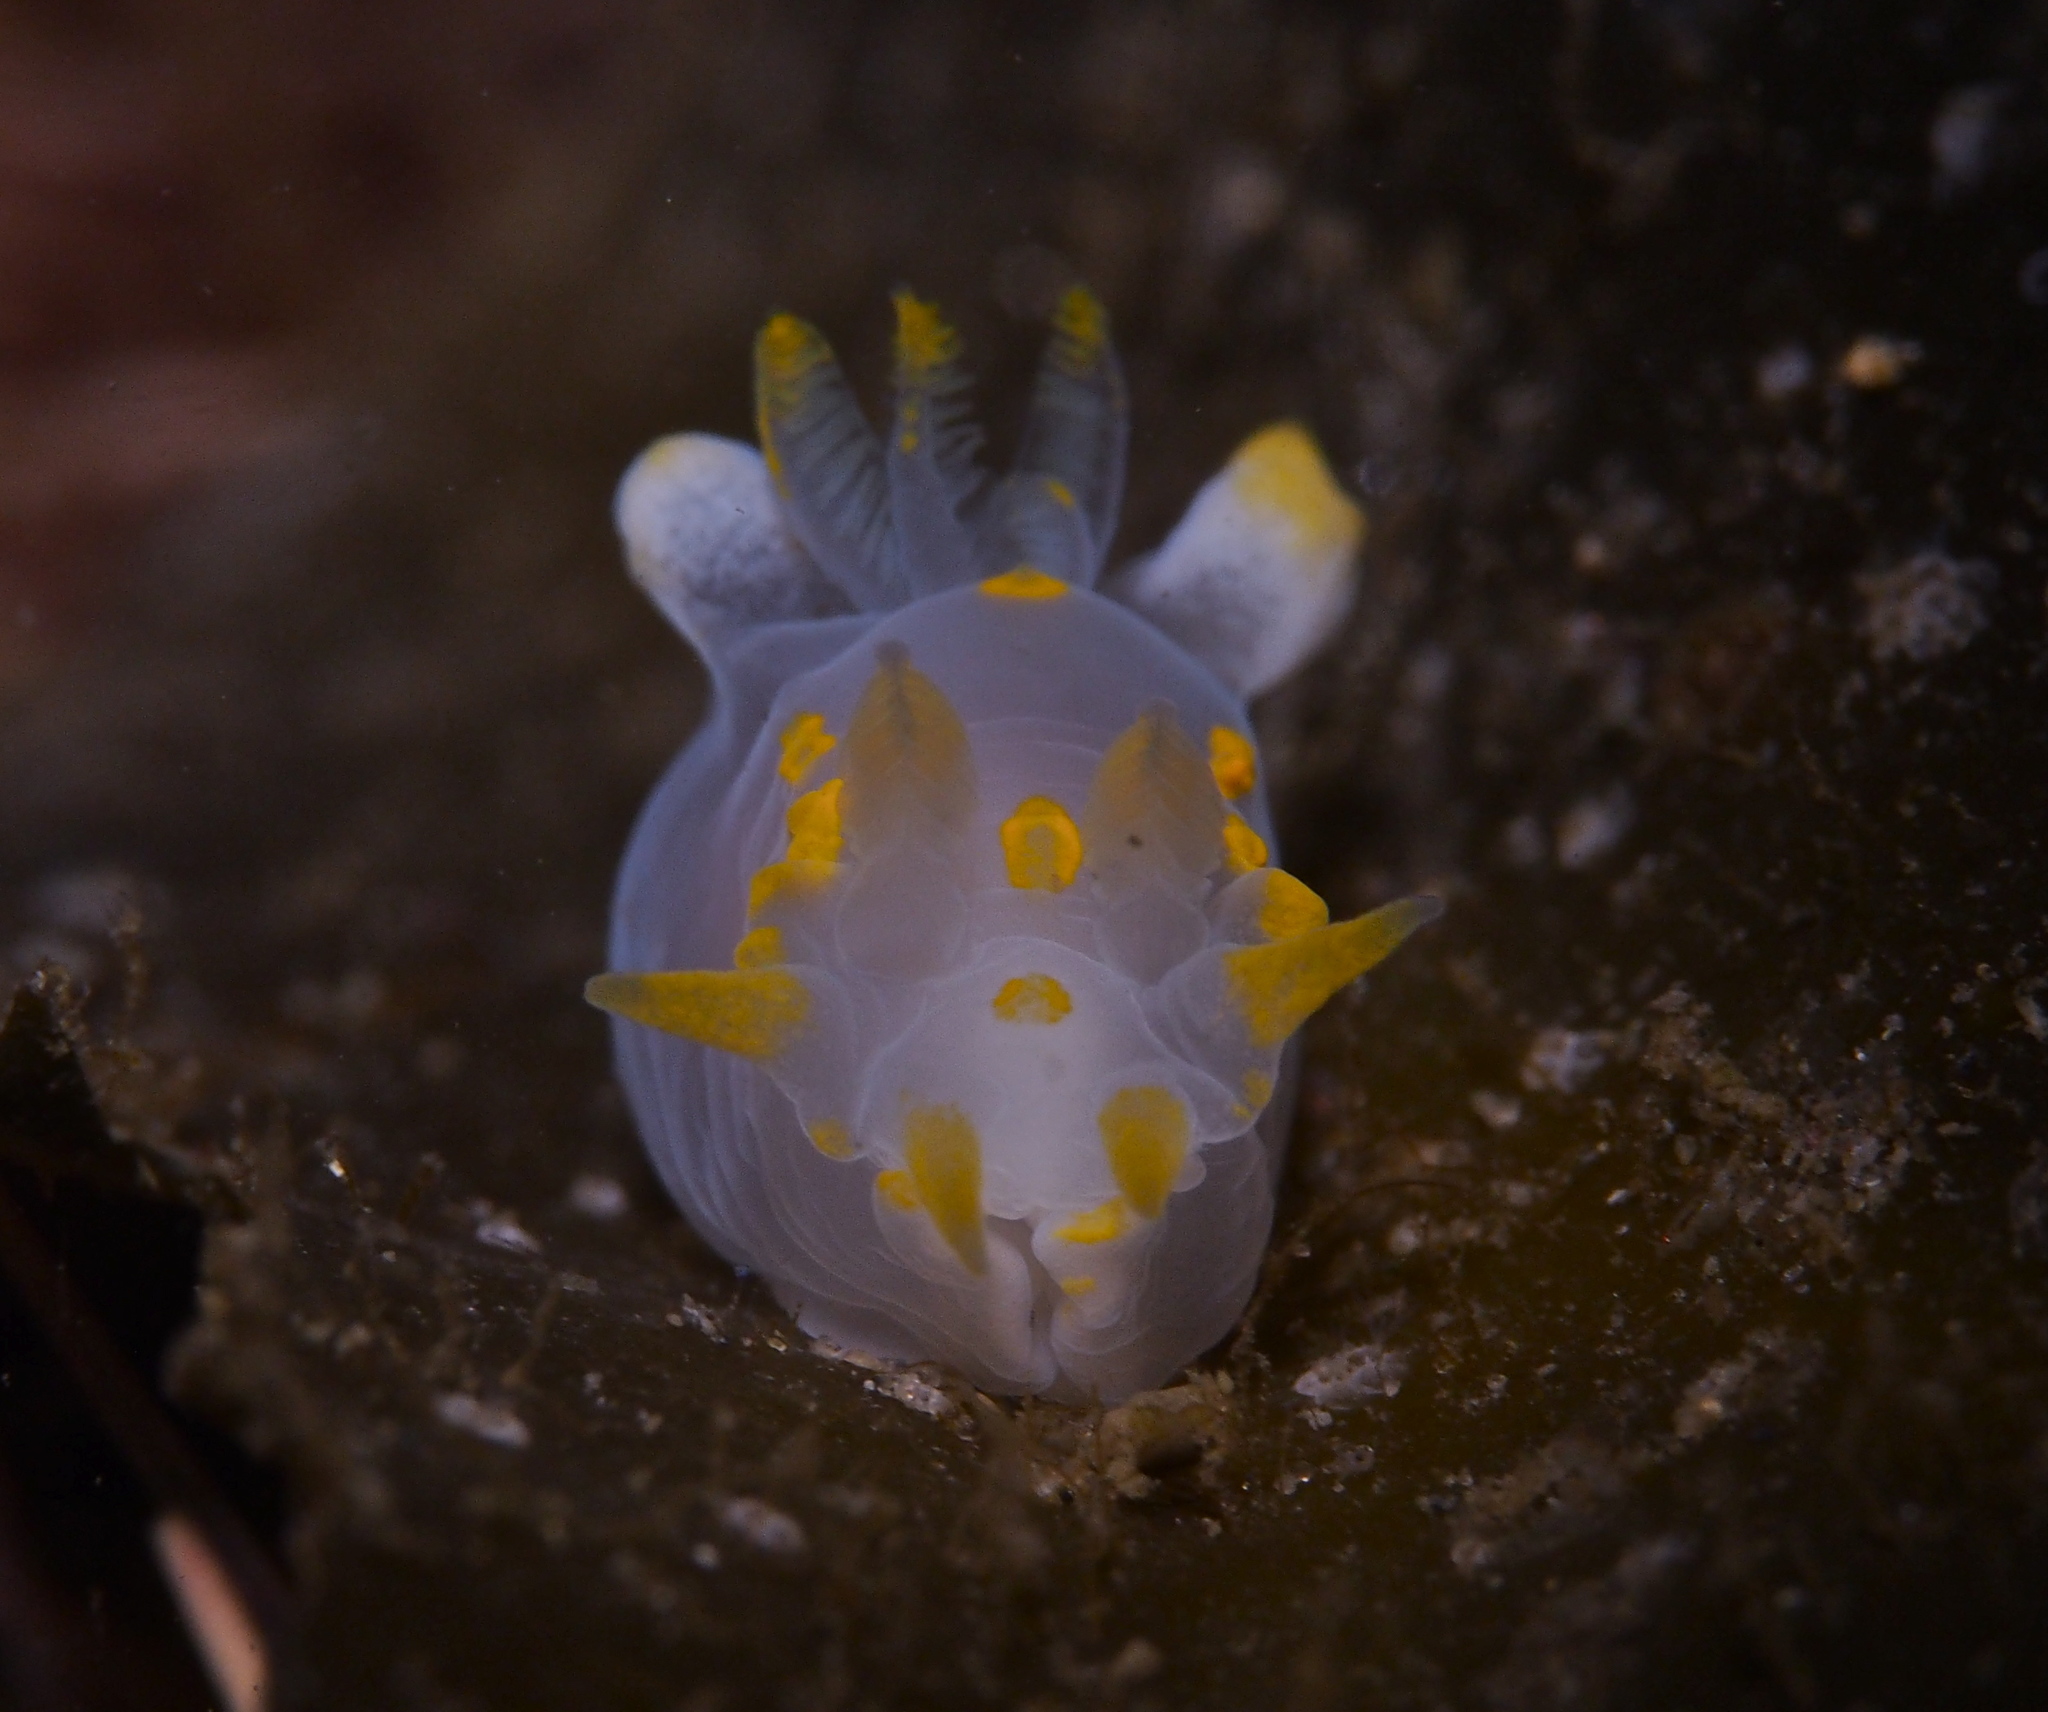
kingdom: Animalia
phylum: Mollusca
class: Gastropoda
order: Nudibranchia
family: Polyceridae
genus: Polycera
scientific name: Polycera quadrilineata
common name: Four-striped polycera
